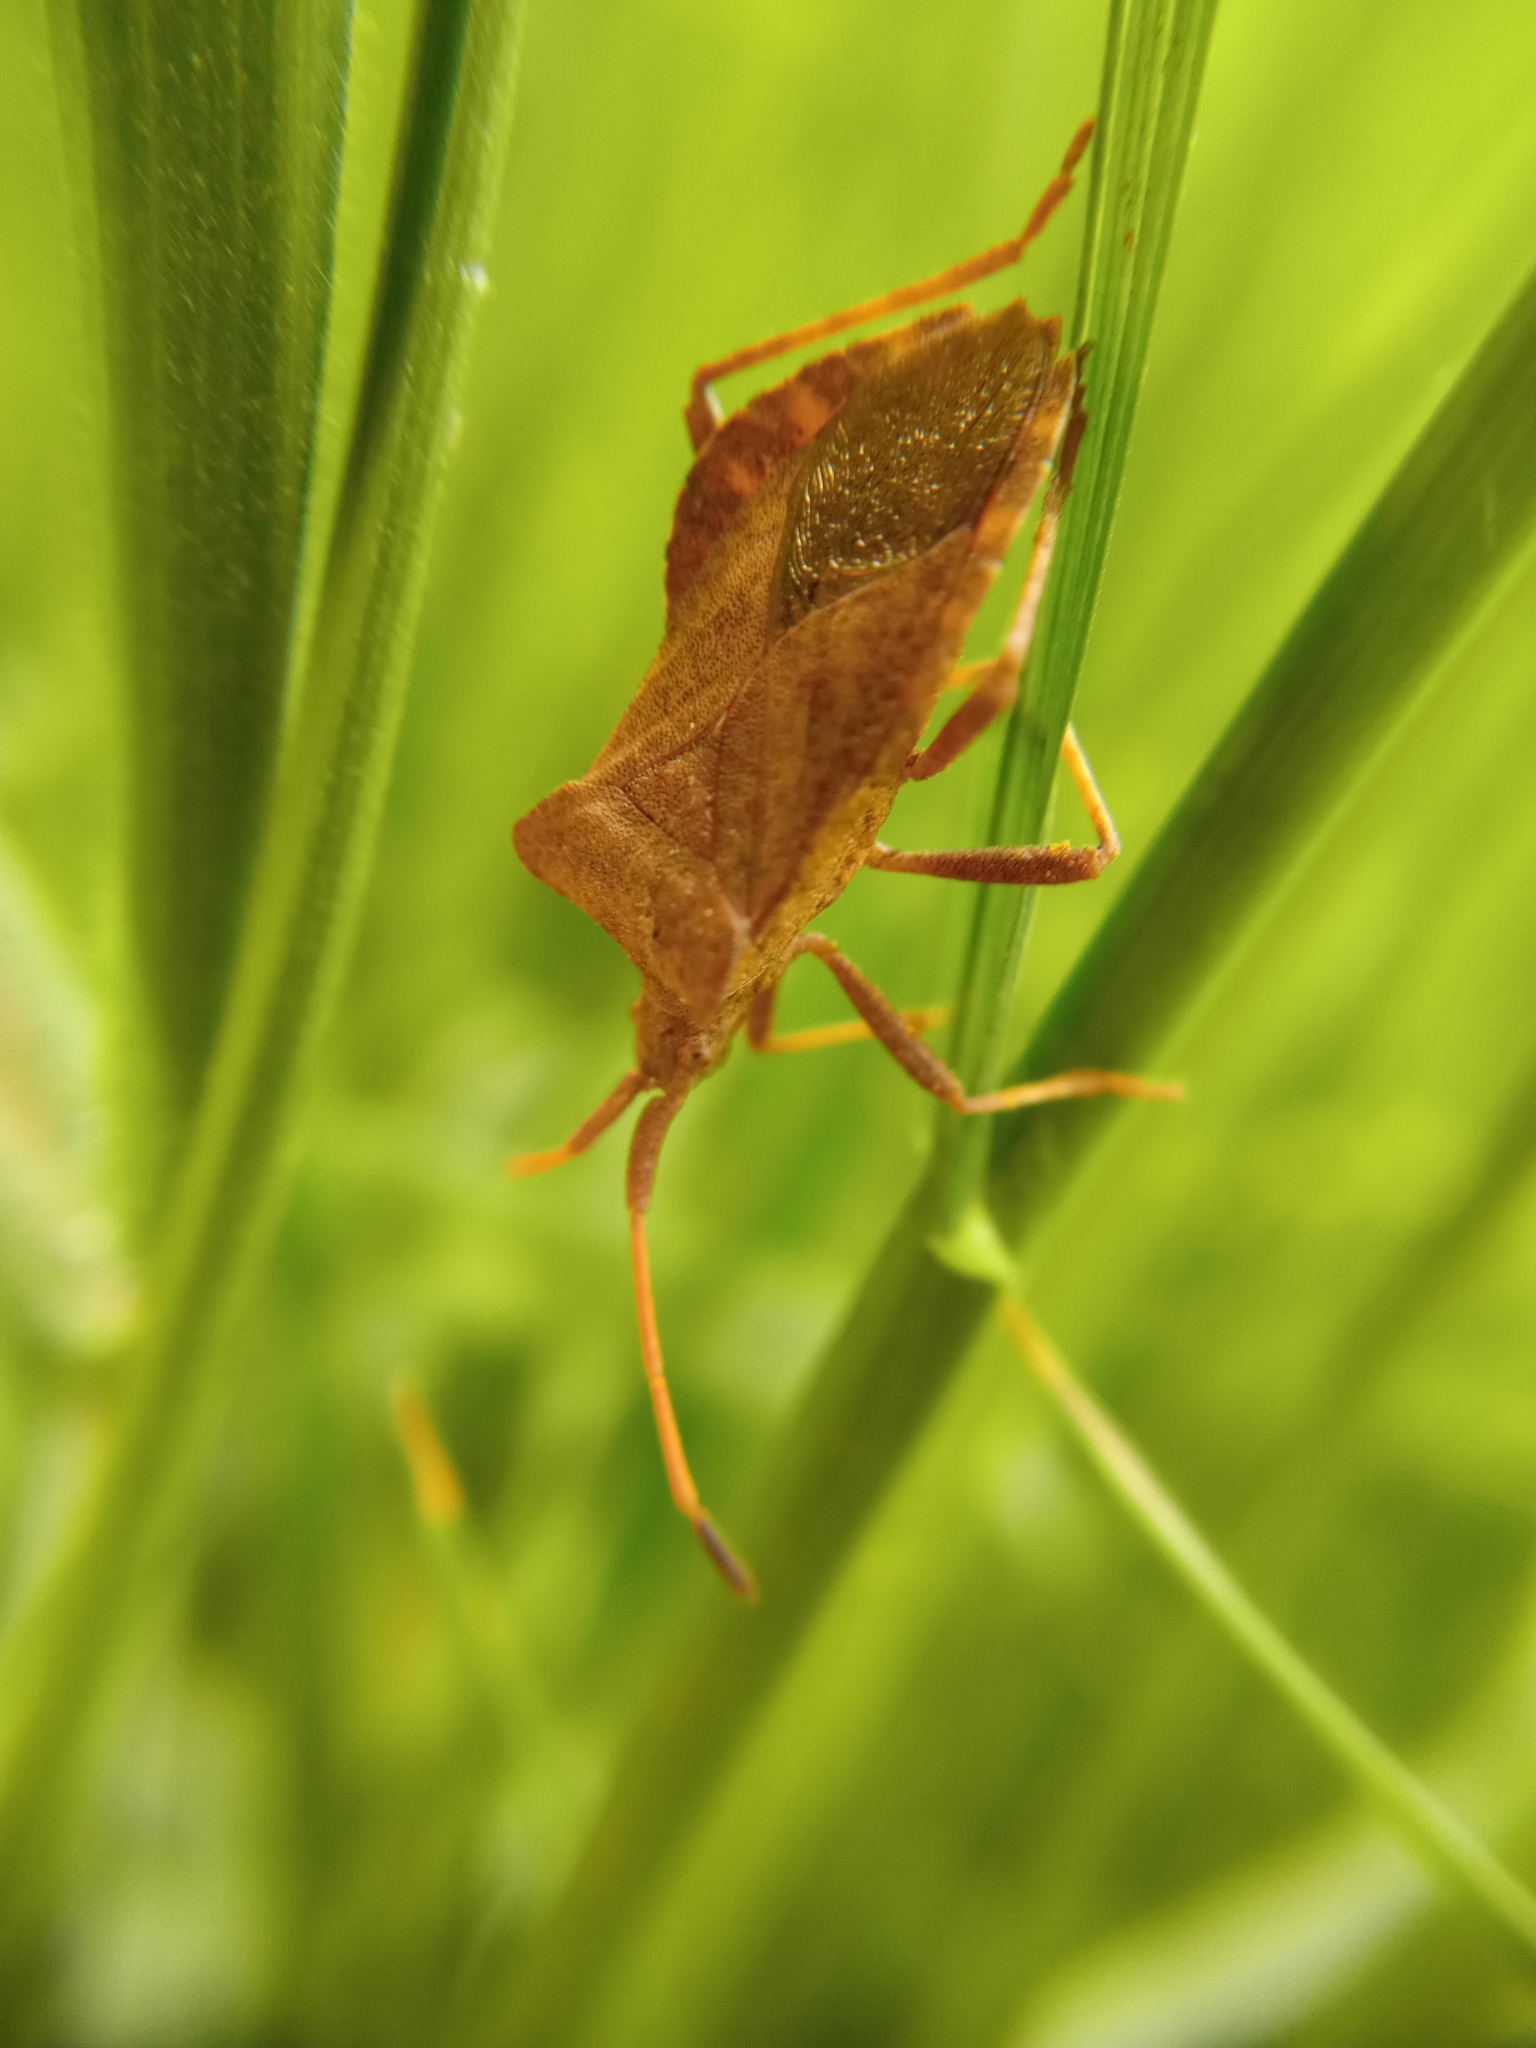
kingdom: Animalia
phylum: Arthropoda
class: Insecta
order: Hemiptera
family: Coreidae
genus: Coreus
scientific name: Coreus marginatus
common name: Dock bug
